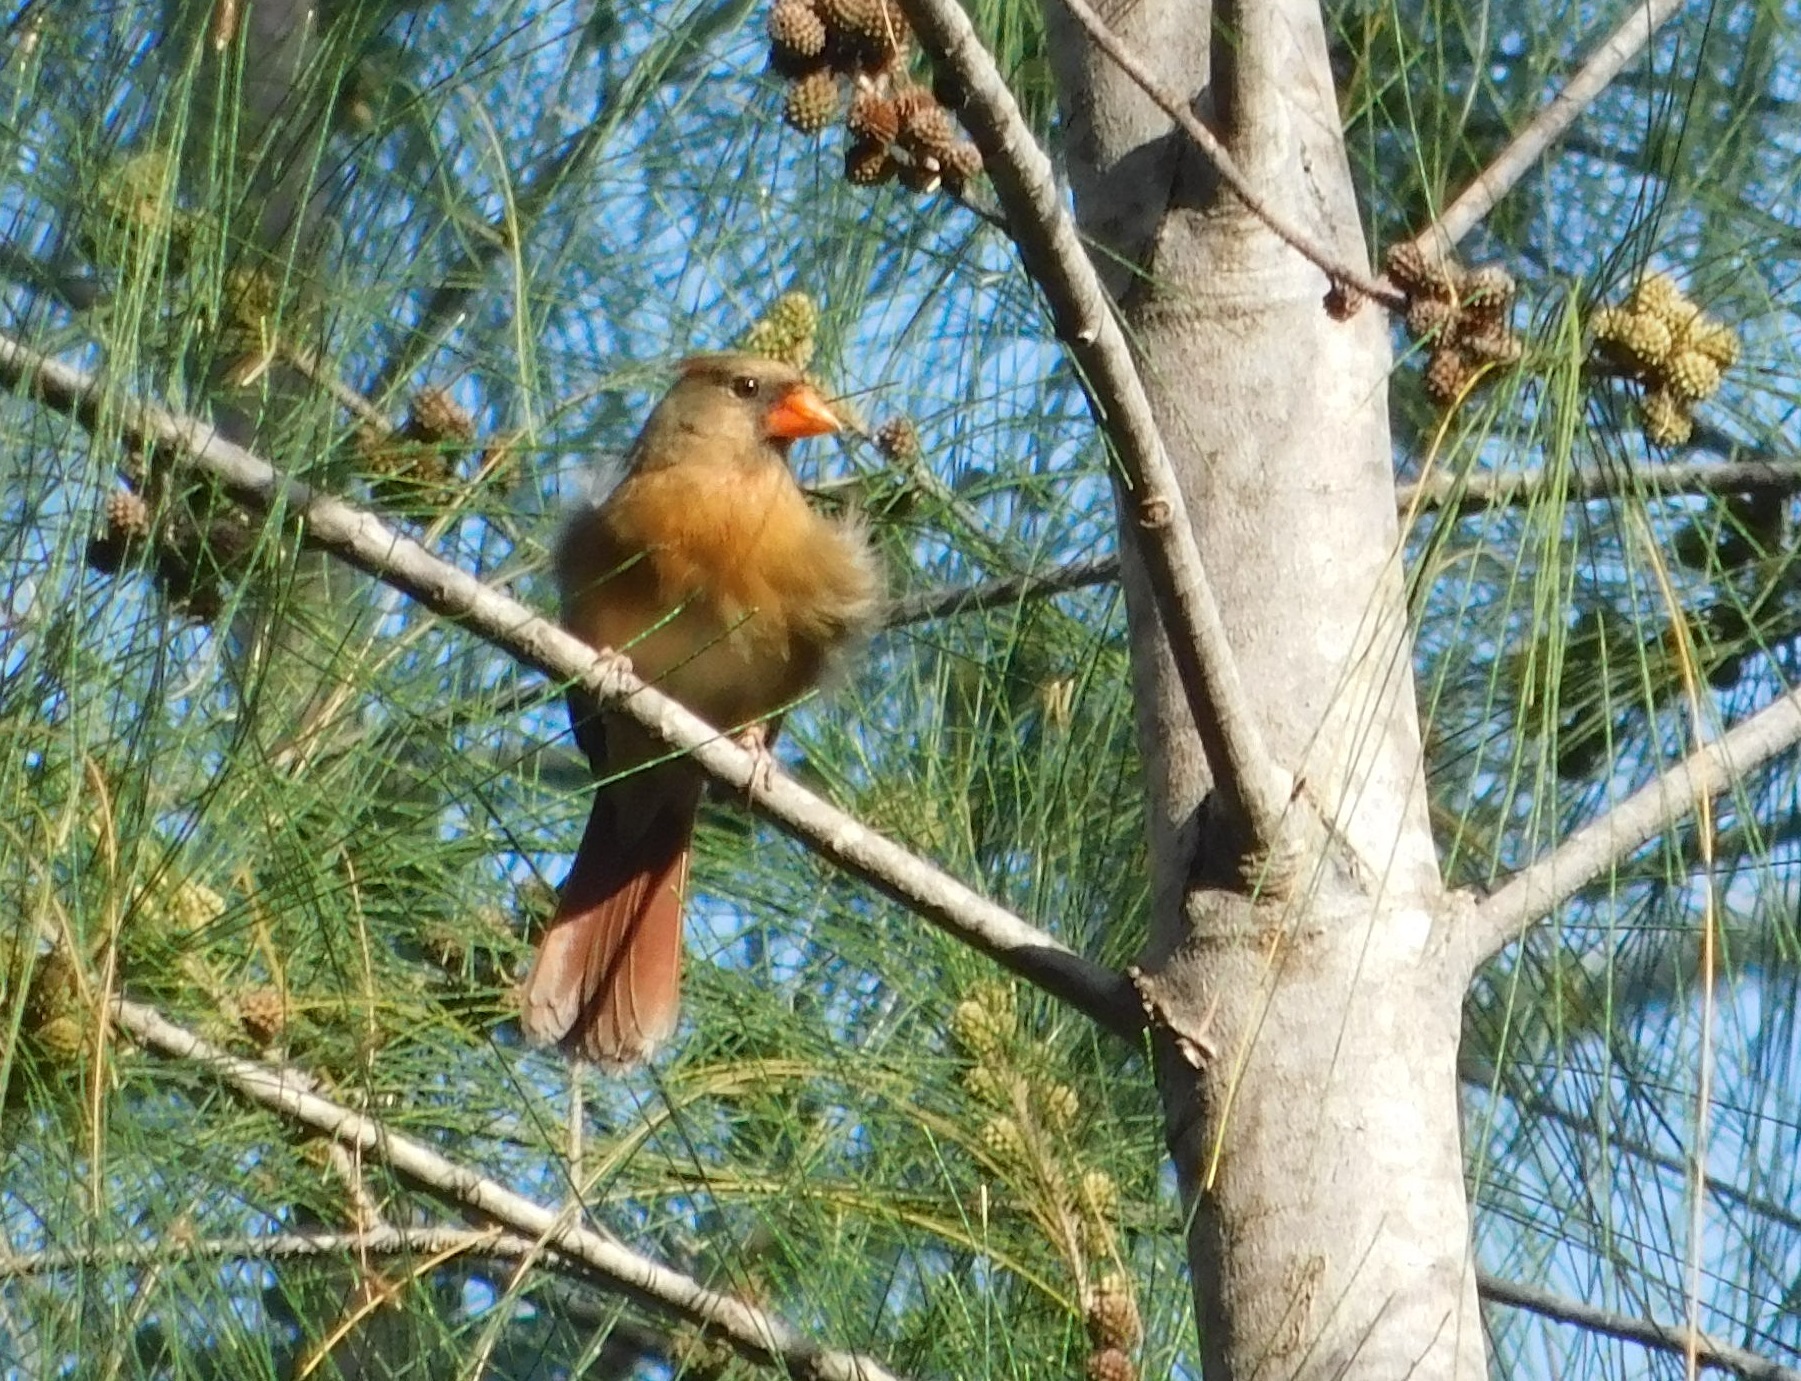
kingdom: Animalia
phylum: Chordata
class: Aves
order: Passeriformes
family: Cardinalidae
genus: Cardinalis
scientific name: Cardinalis cardinalis
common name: Northern cardinal
